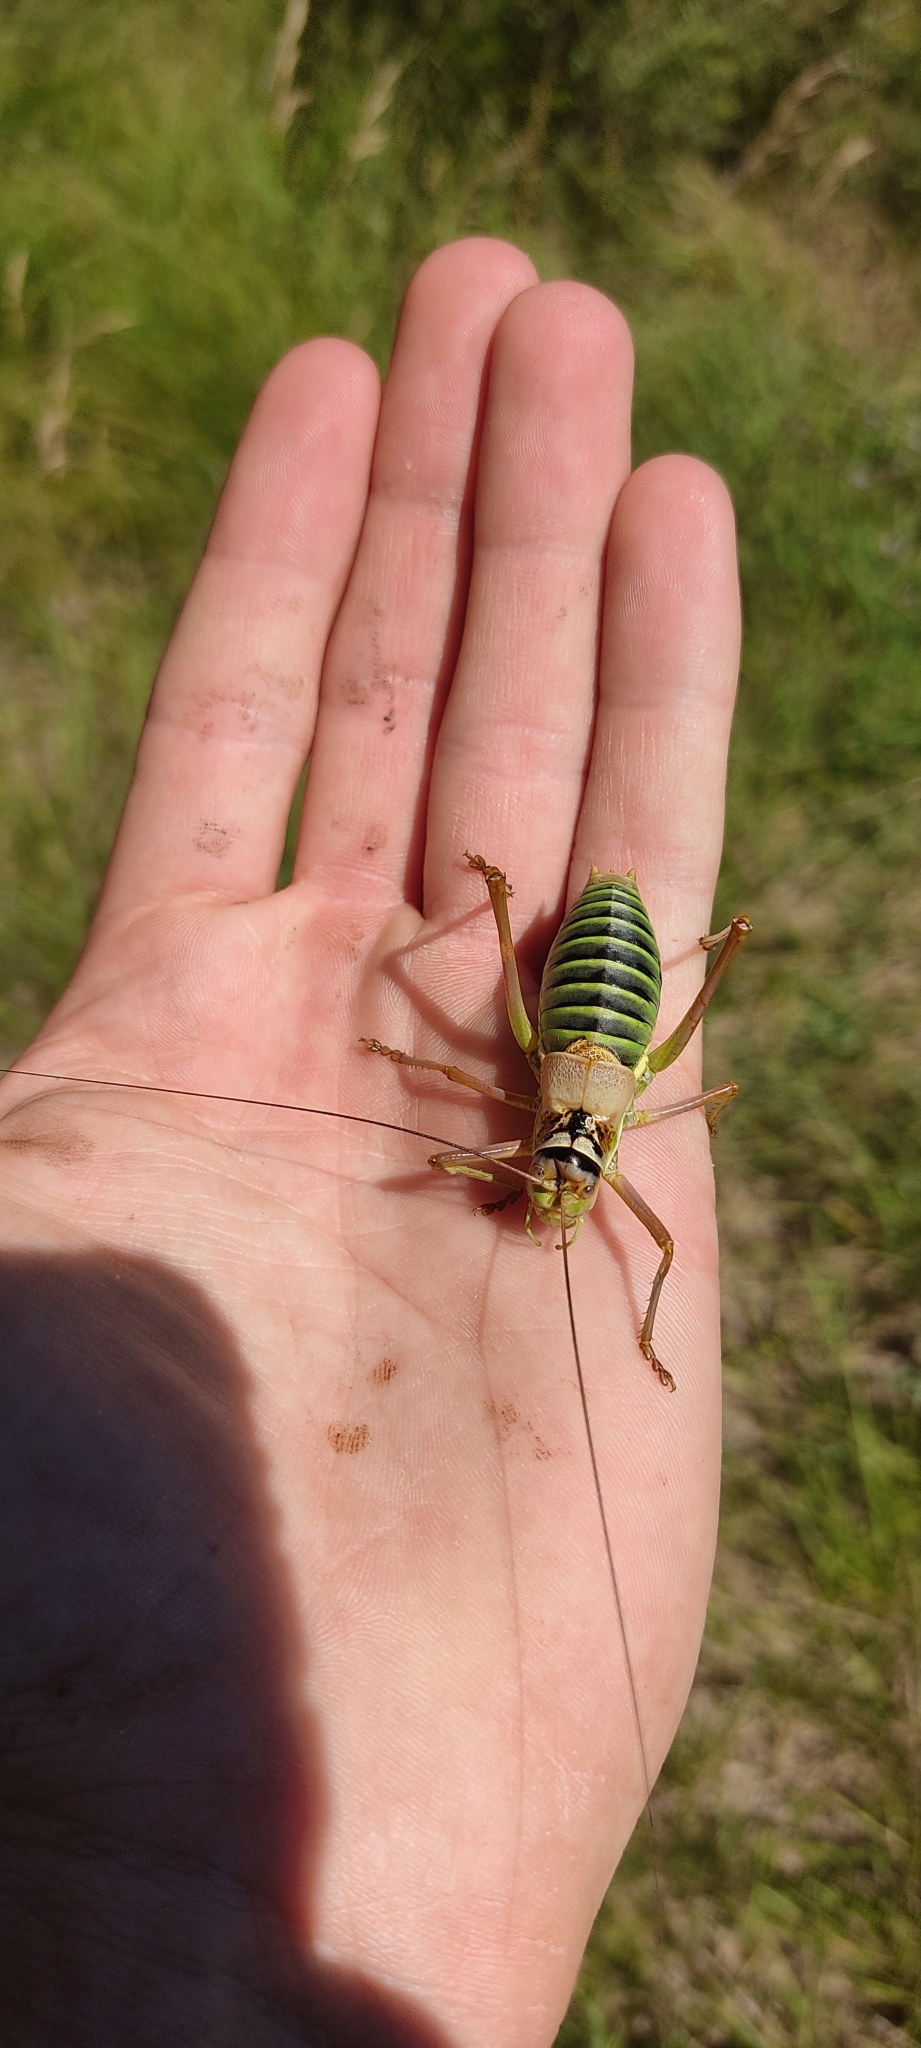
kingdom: Animalia
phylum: Arthropoda
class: Insecta
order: Orthoptera
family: Tettigoniidae
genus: Ephippiger
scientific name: Ephippiger diurnus
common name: Western saddle bush-cricket
